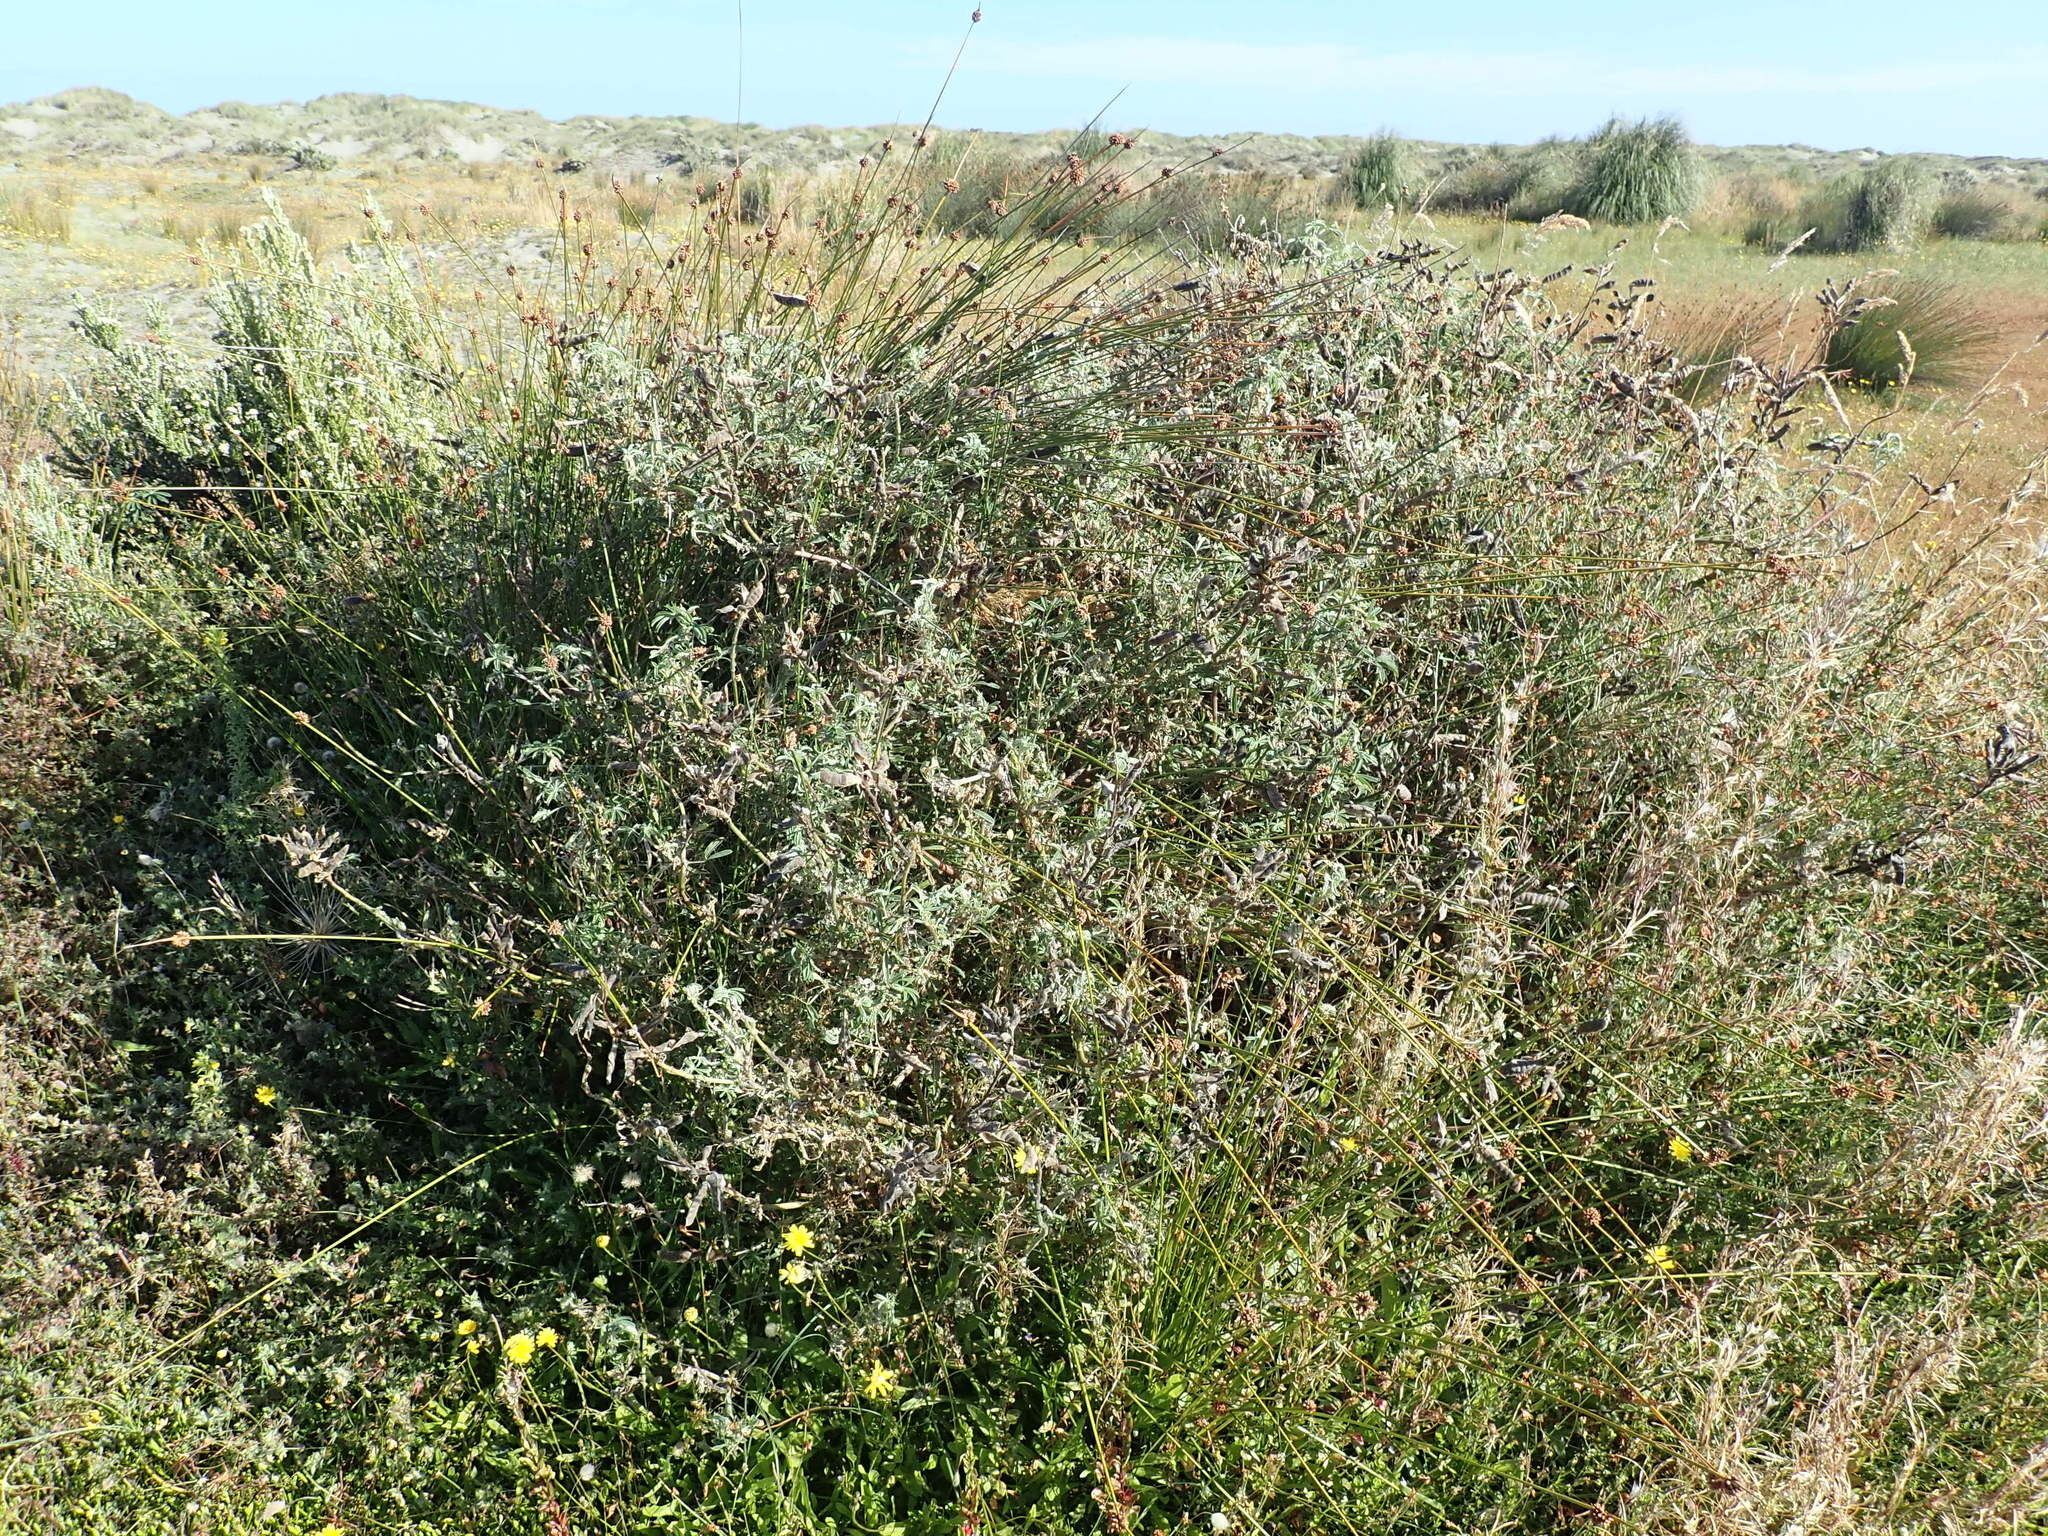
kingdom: Plantae
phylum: Tracheophyta
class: Magnoliopsida
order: Fabales
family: Fabaceae
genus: Lupinus
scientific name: Lupinus arboreus
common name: Yellow bush lupine
